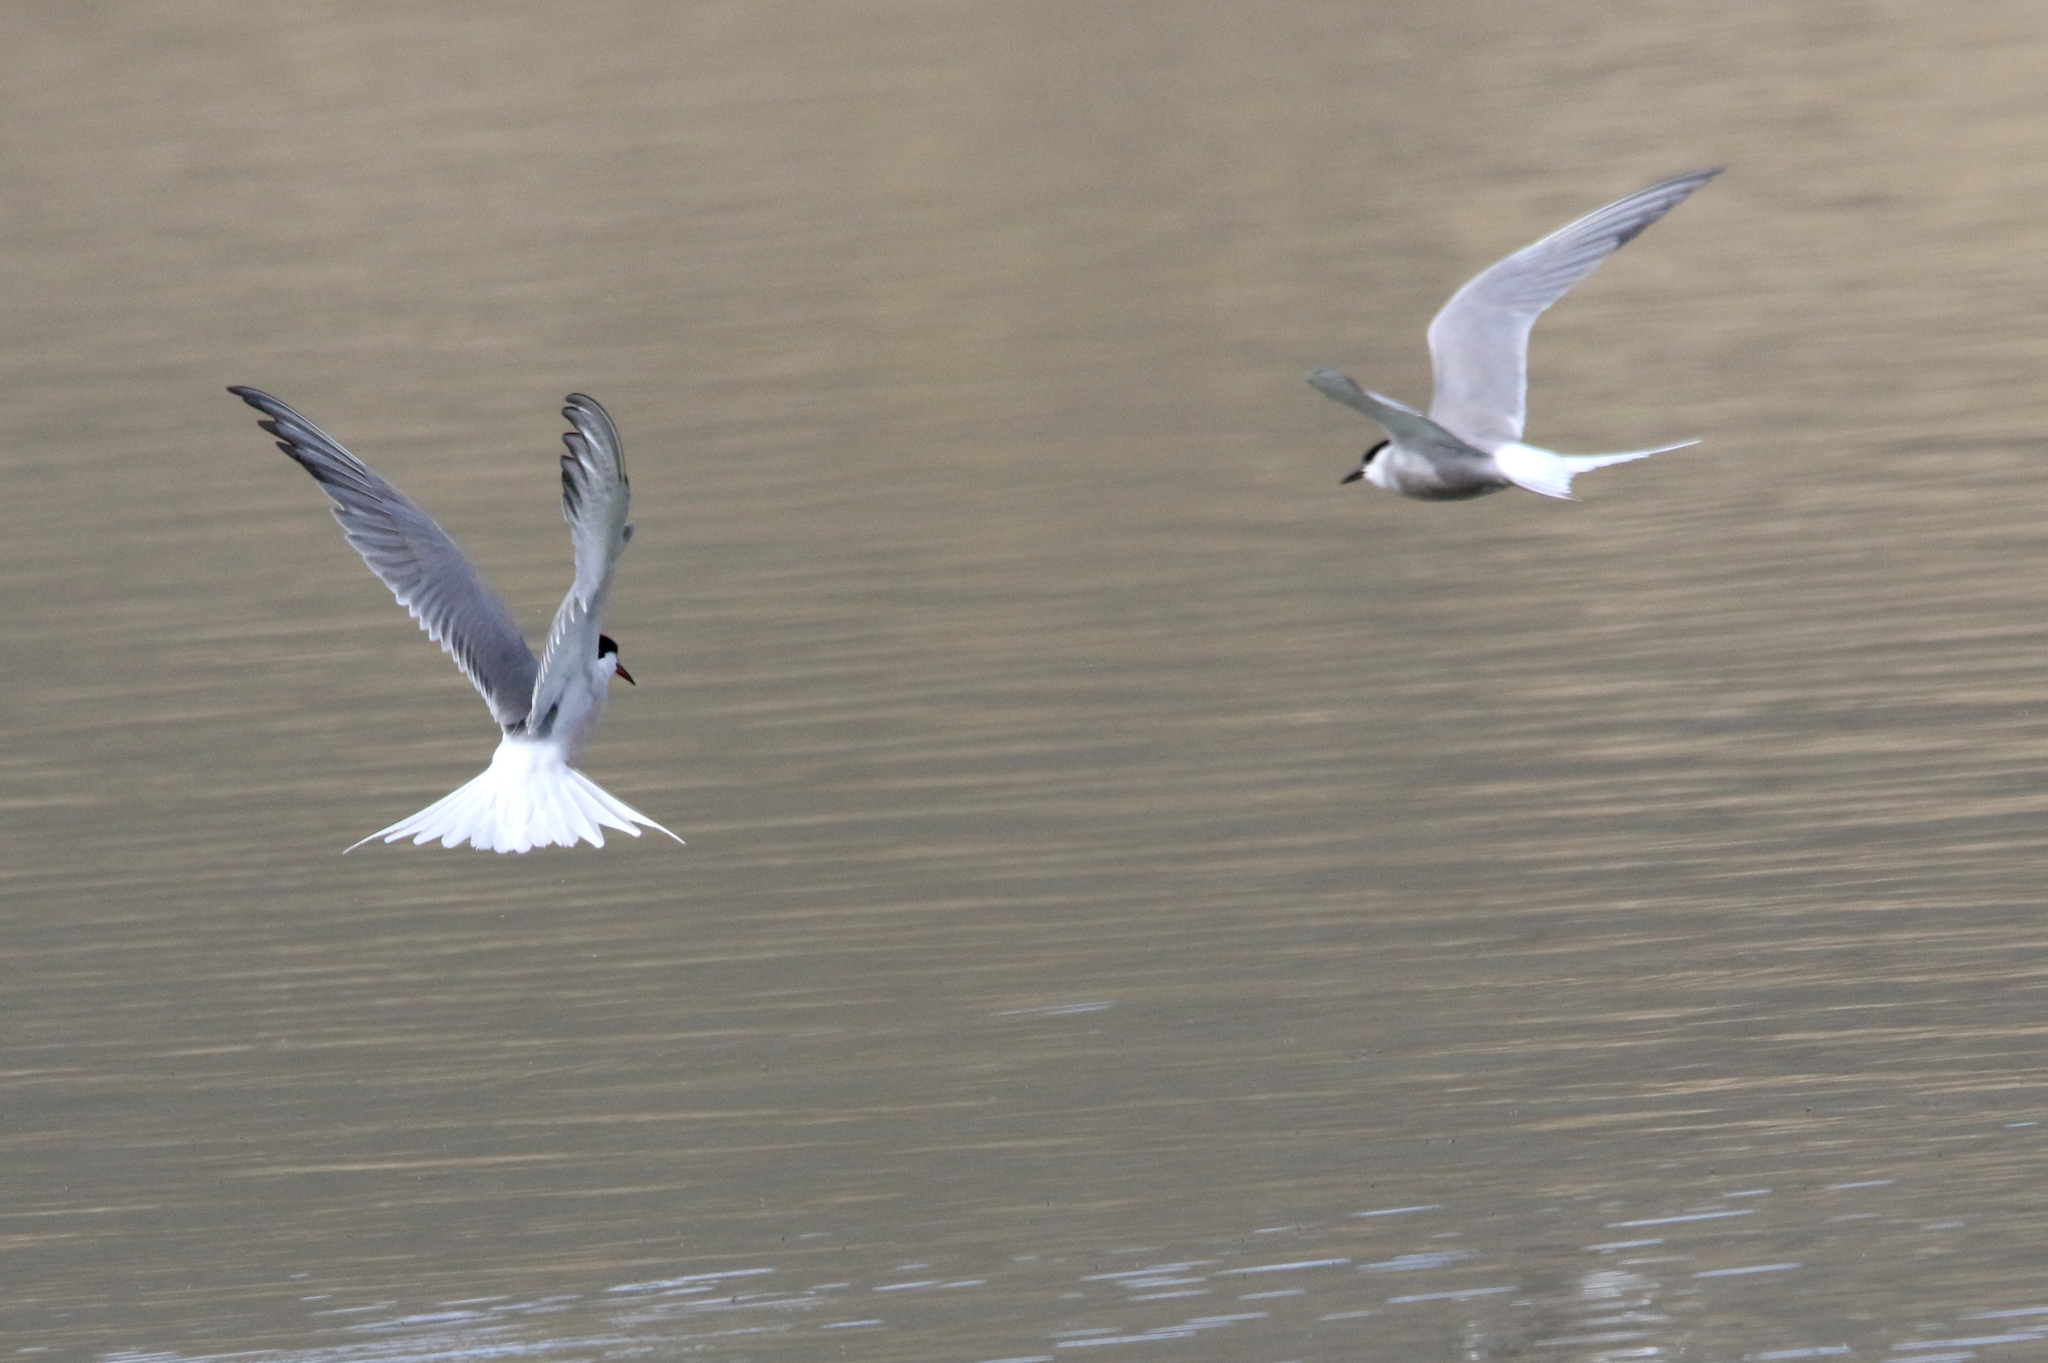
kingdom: Animalia
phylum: Chordata
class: Aves
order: Charadriiformes
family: Laridae
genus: Sterna
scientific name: Sterna hirundo
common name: Common tern
